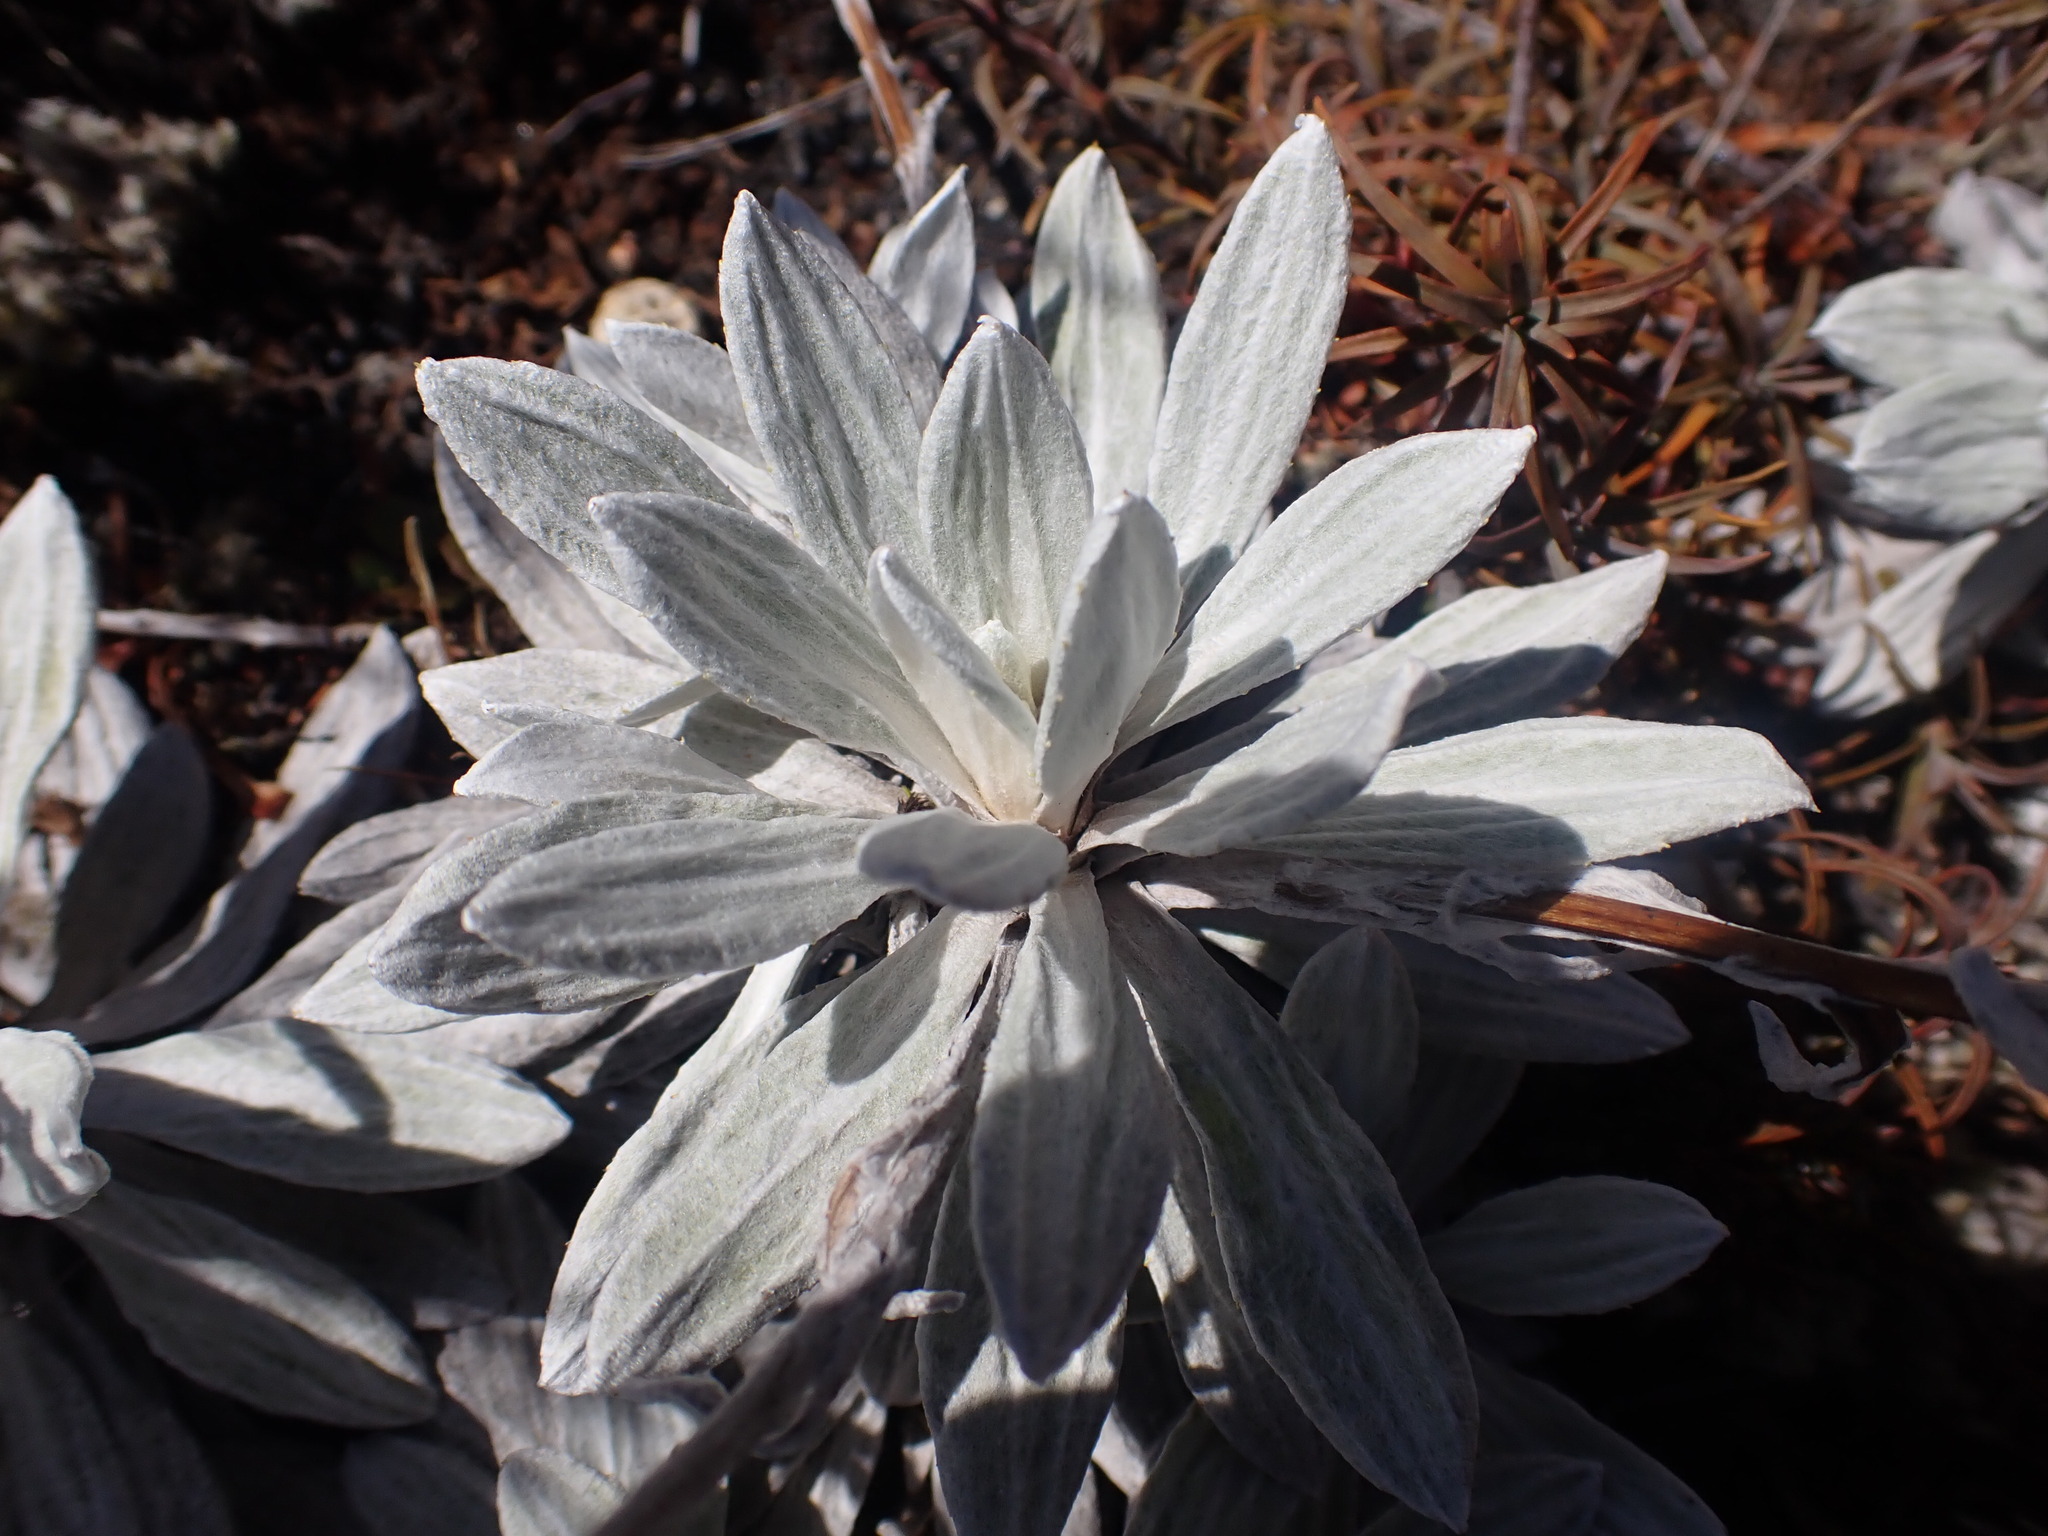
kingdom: Plantae
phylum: Tracheophyta
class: Magnoliopsida
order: Asterales
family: Asteraceae
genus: Celmisia
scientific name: Celmisia incana
